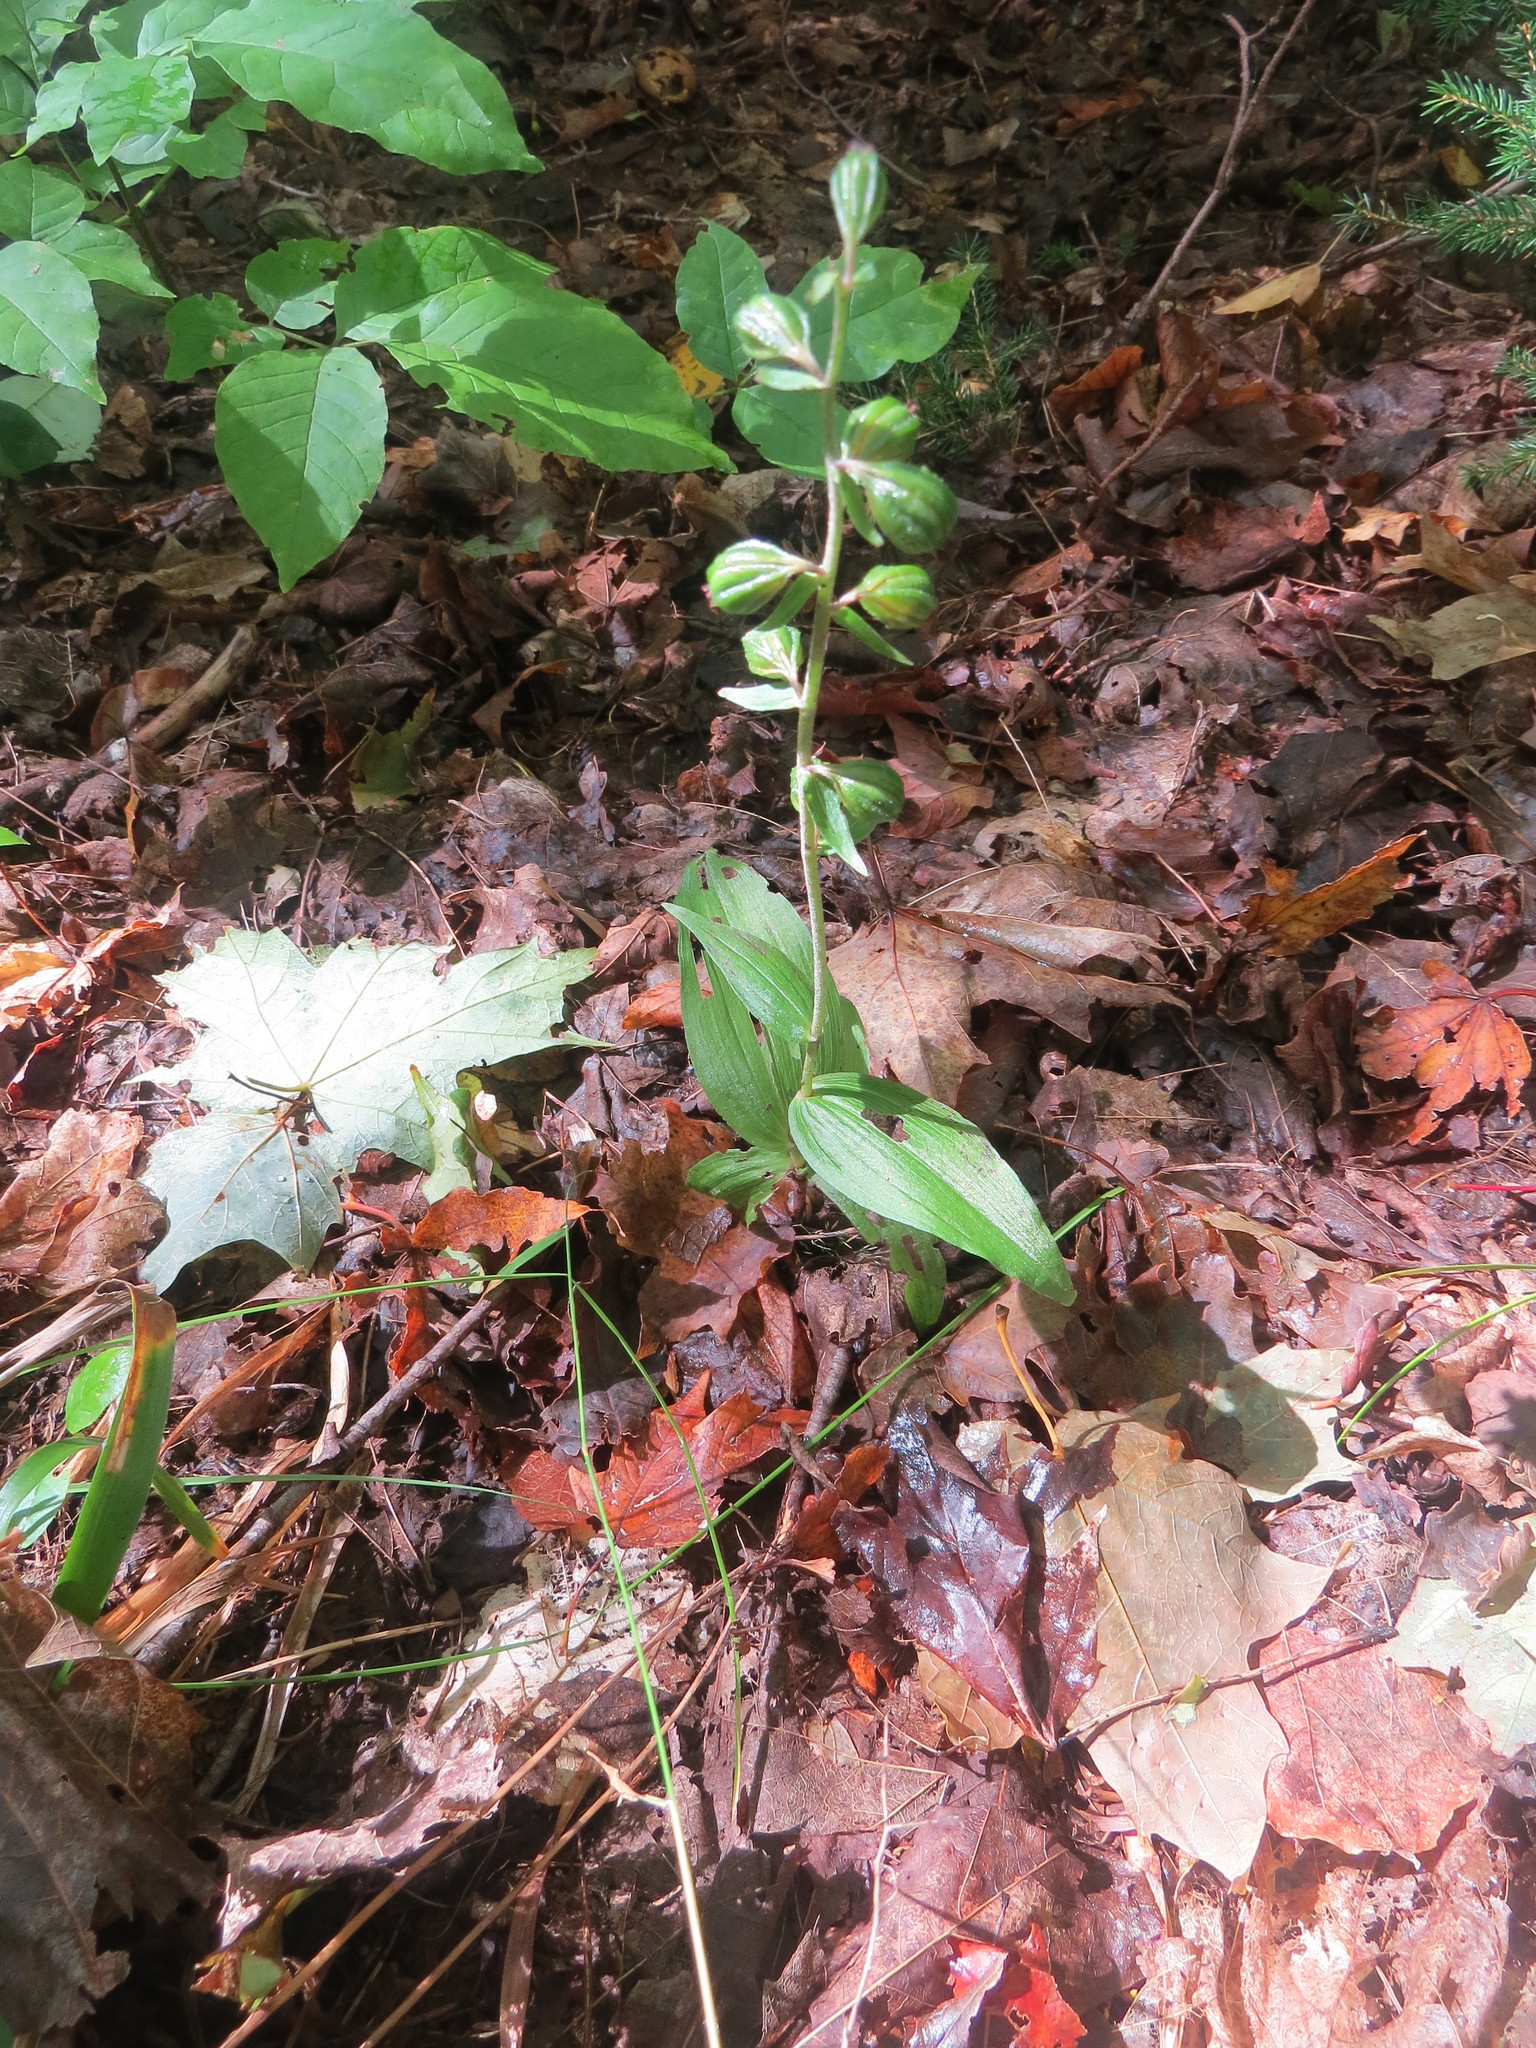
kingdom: Plantae
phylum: Tracheophyta
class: Liliopsida
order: Asparagales
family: Orchidaceae
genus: Epipactis
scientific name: Epipactis helleborine
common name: Broad-leaved helleborine
